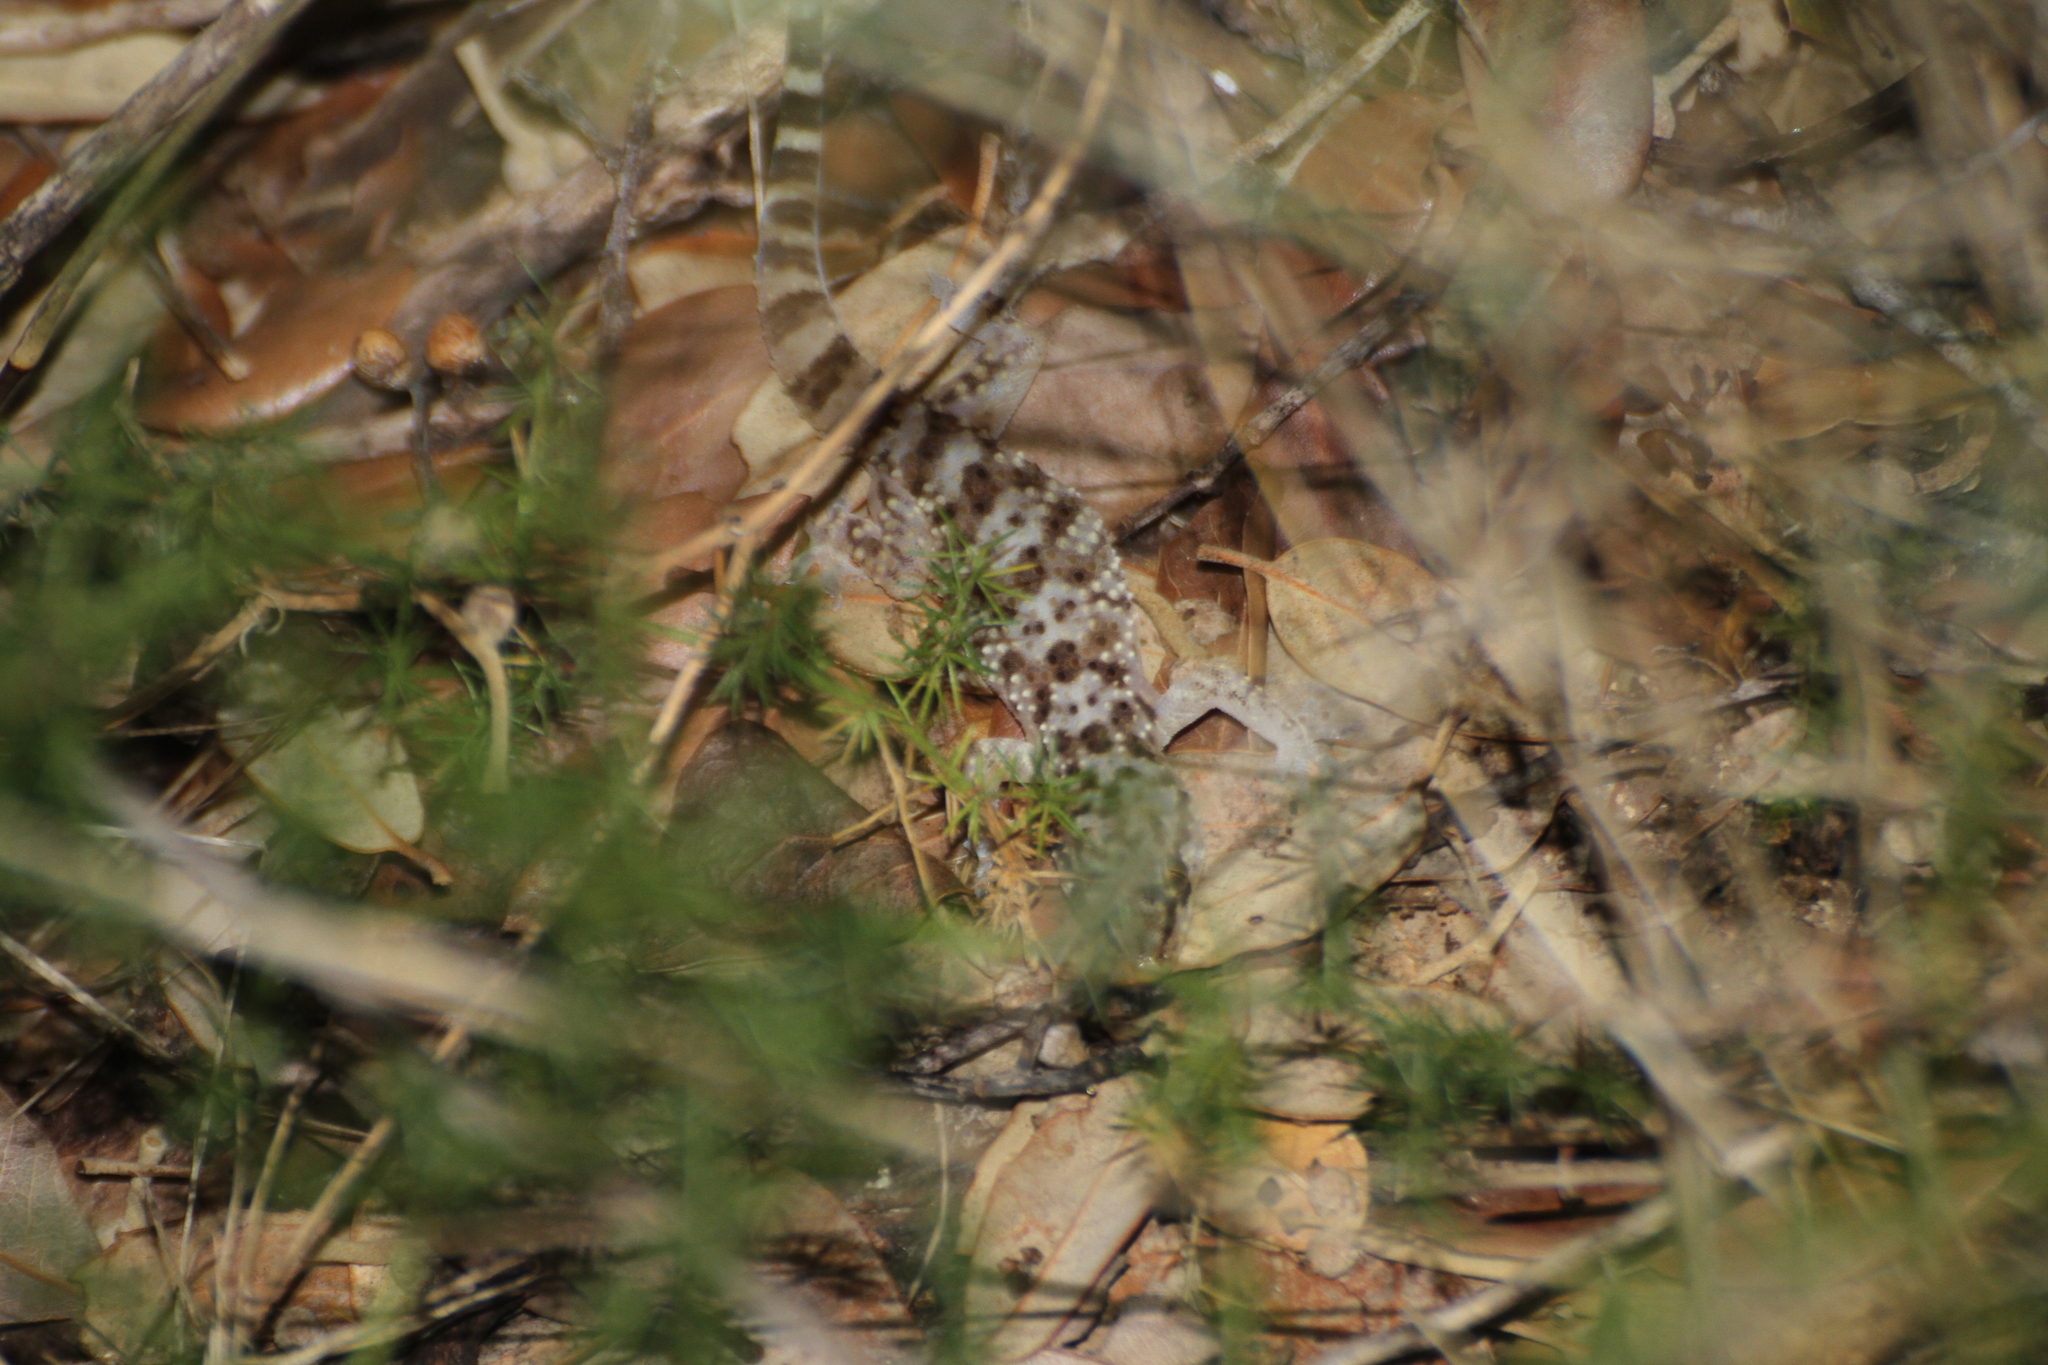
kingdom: Animalia
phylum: Chordata
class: Squamata
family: Gekkonidae
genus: Hemidactylus
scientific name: Hemidactylus turcicus
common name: Turkish gecko
